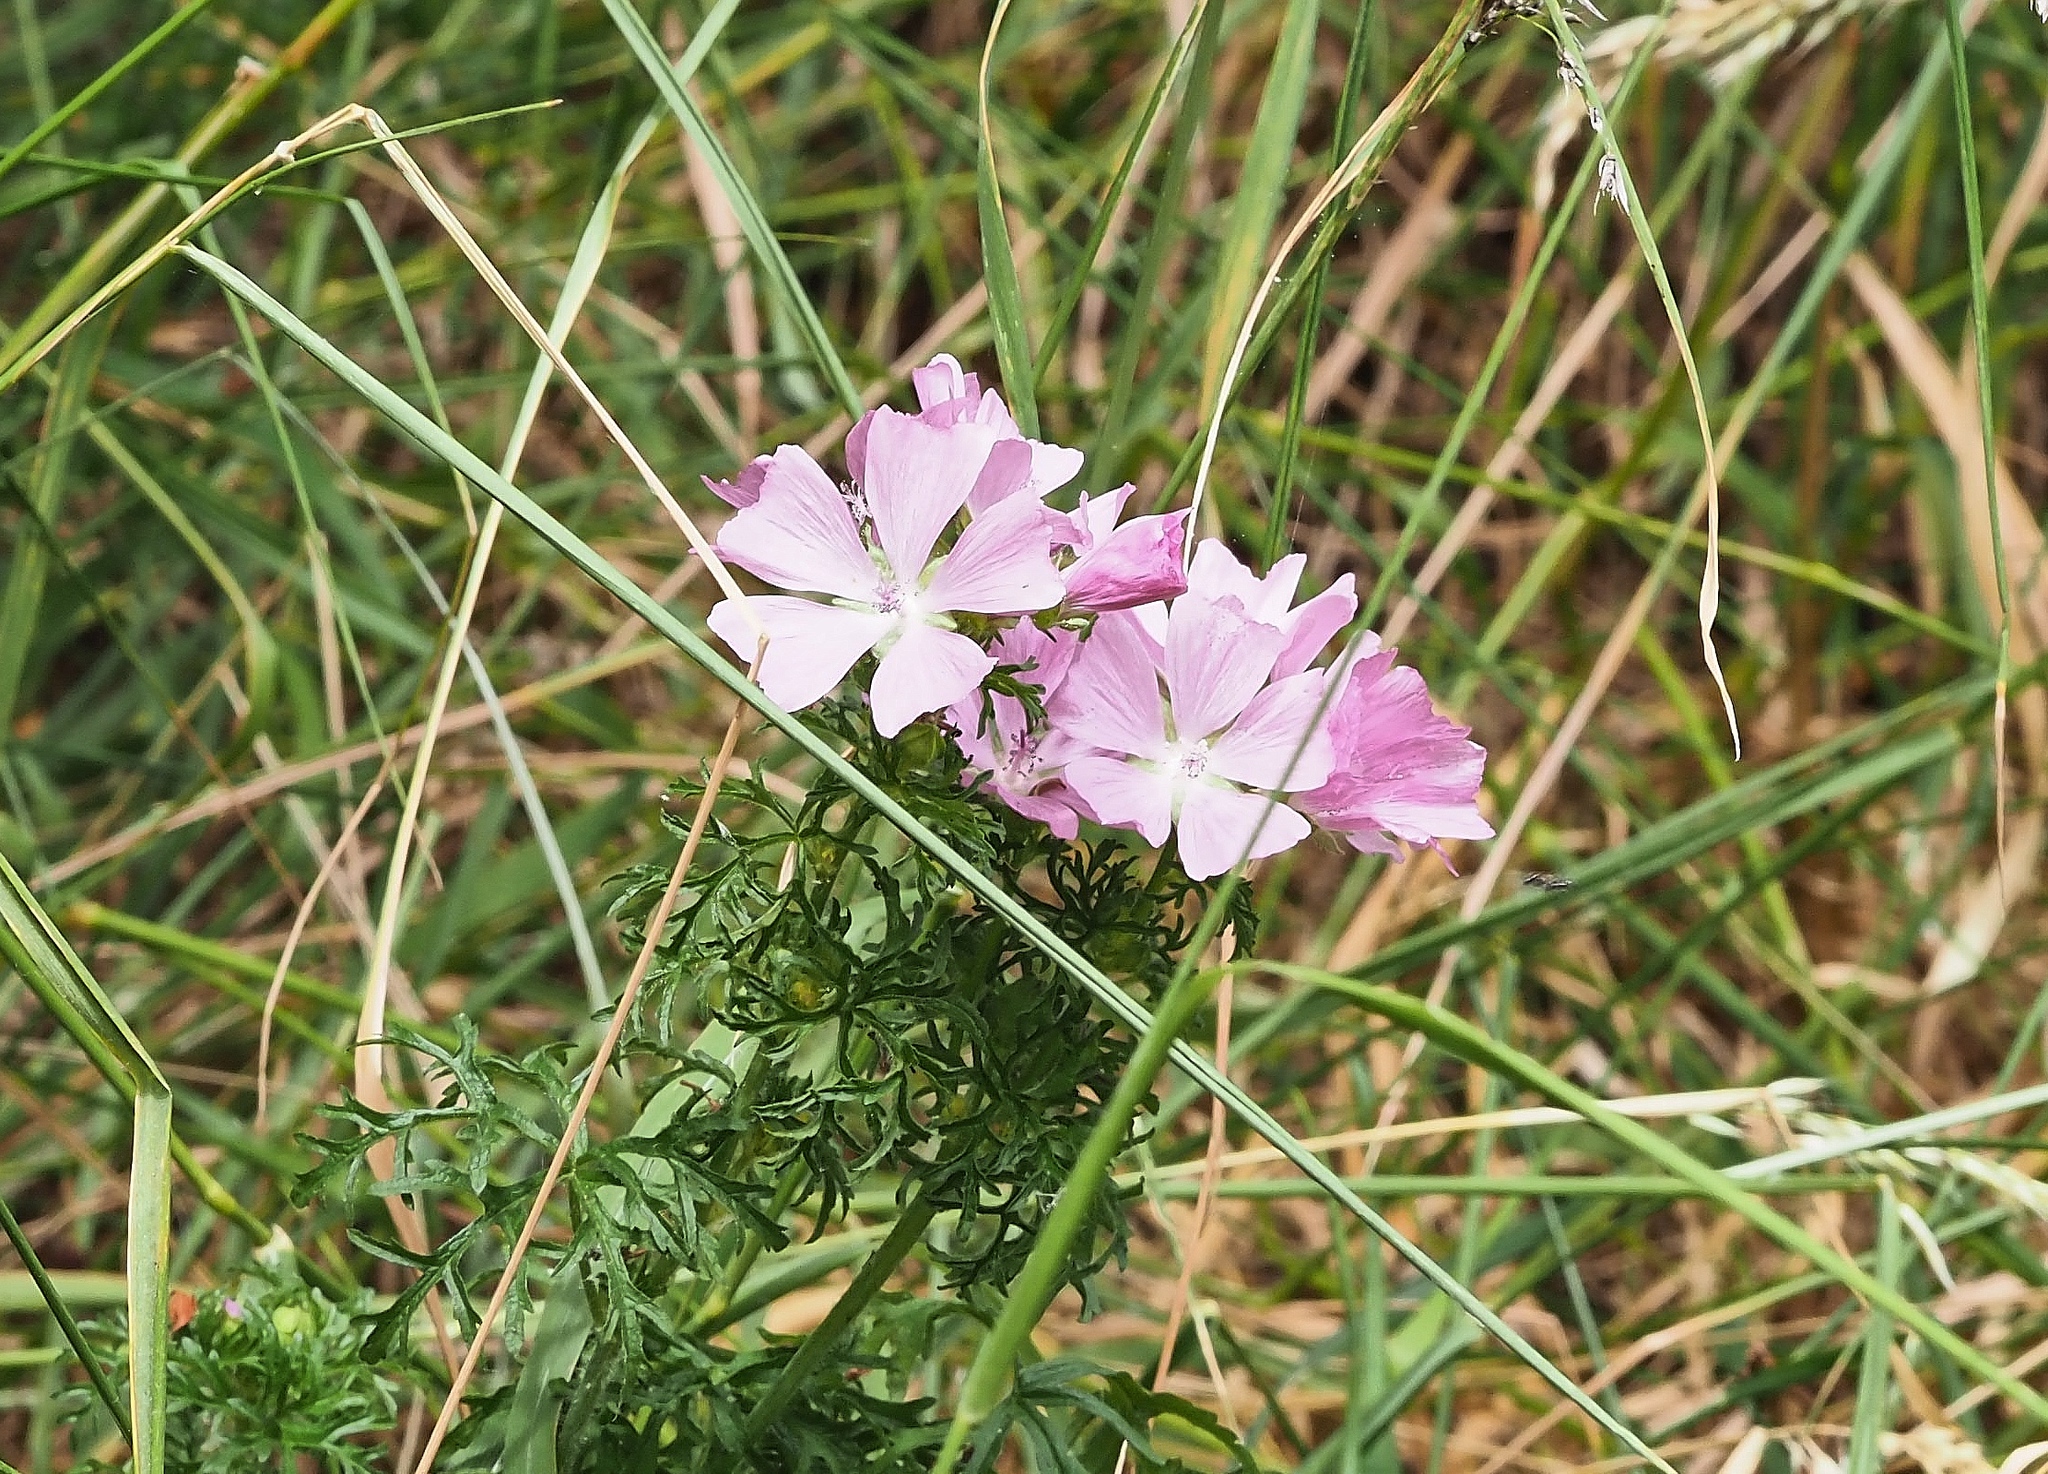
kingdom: Plantae
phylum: Tracheophyta
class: Magnoliopsida
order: Malvales
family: Malvaceae
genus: Malva
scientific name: Malva moschata
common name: Musk mallow
